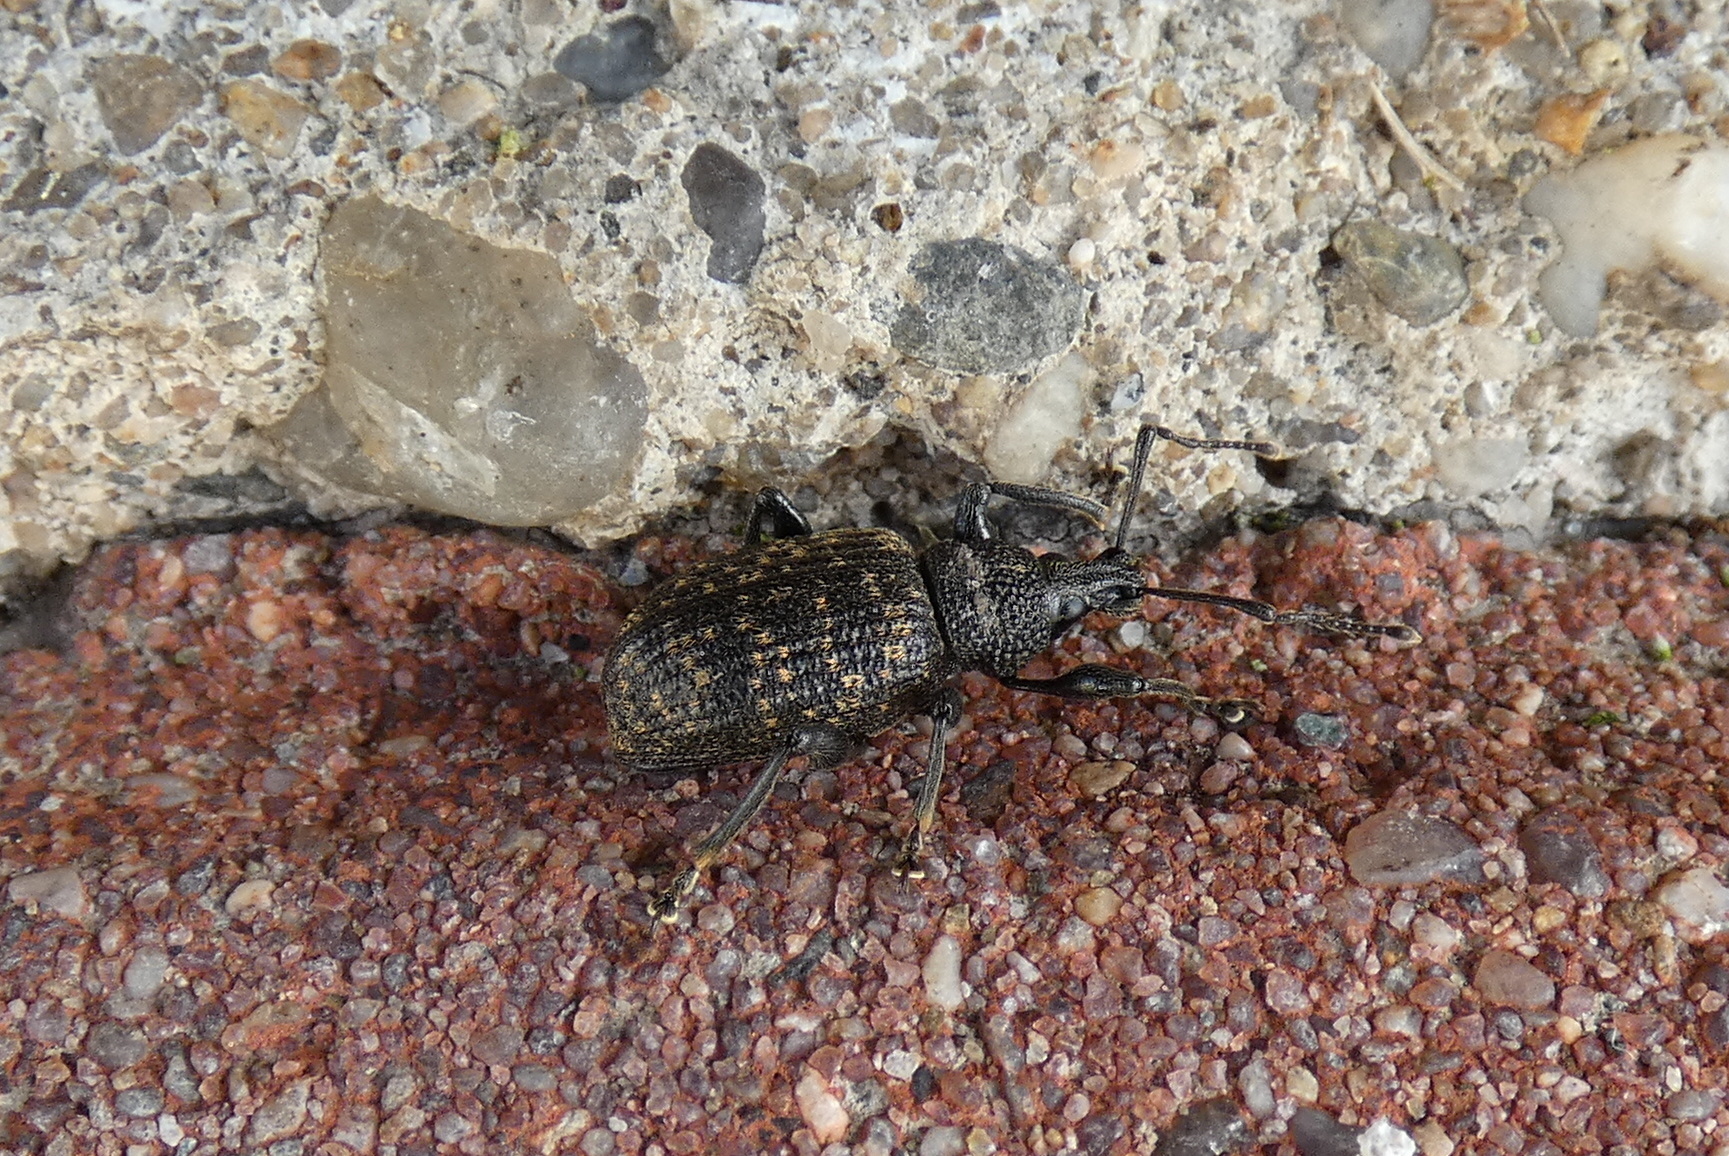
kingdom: Animalia
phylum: Arthropoda
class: Insecta
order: Coleoptera
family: Curculionidae
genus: Otiorhynchus
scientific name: Otiorhynchus sulcatus
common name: Black vine weevil
